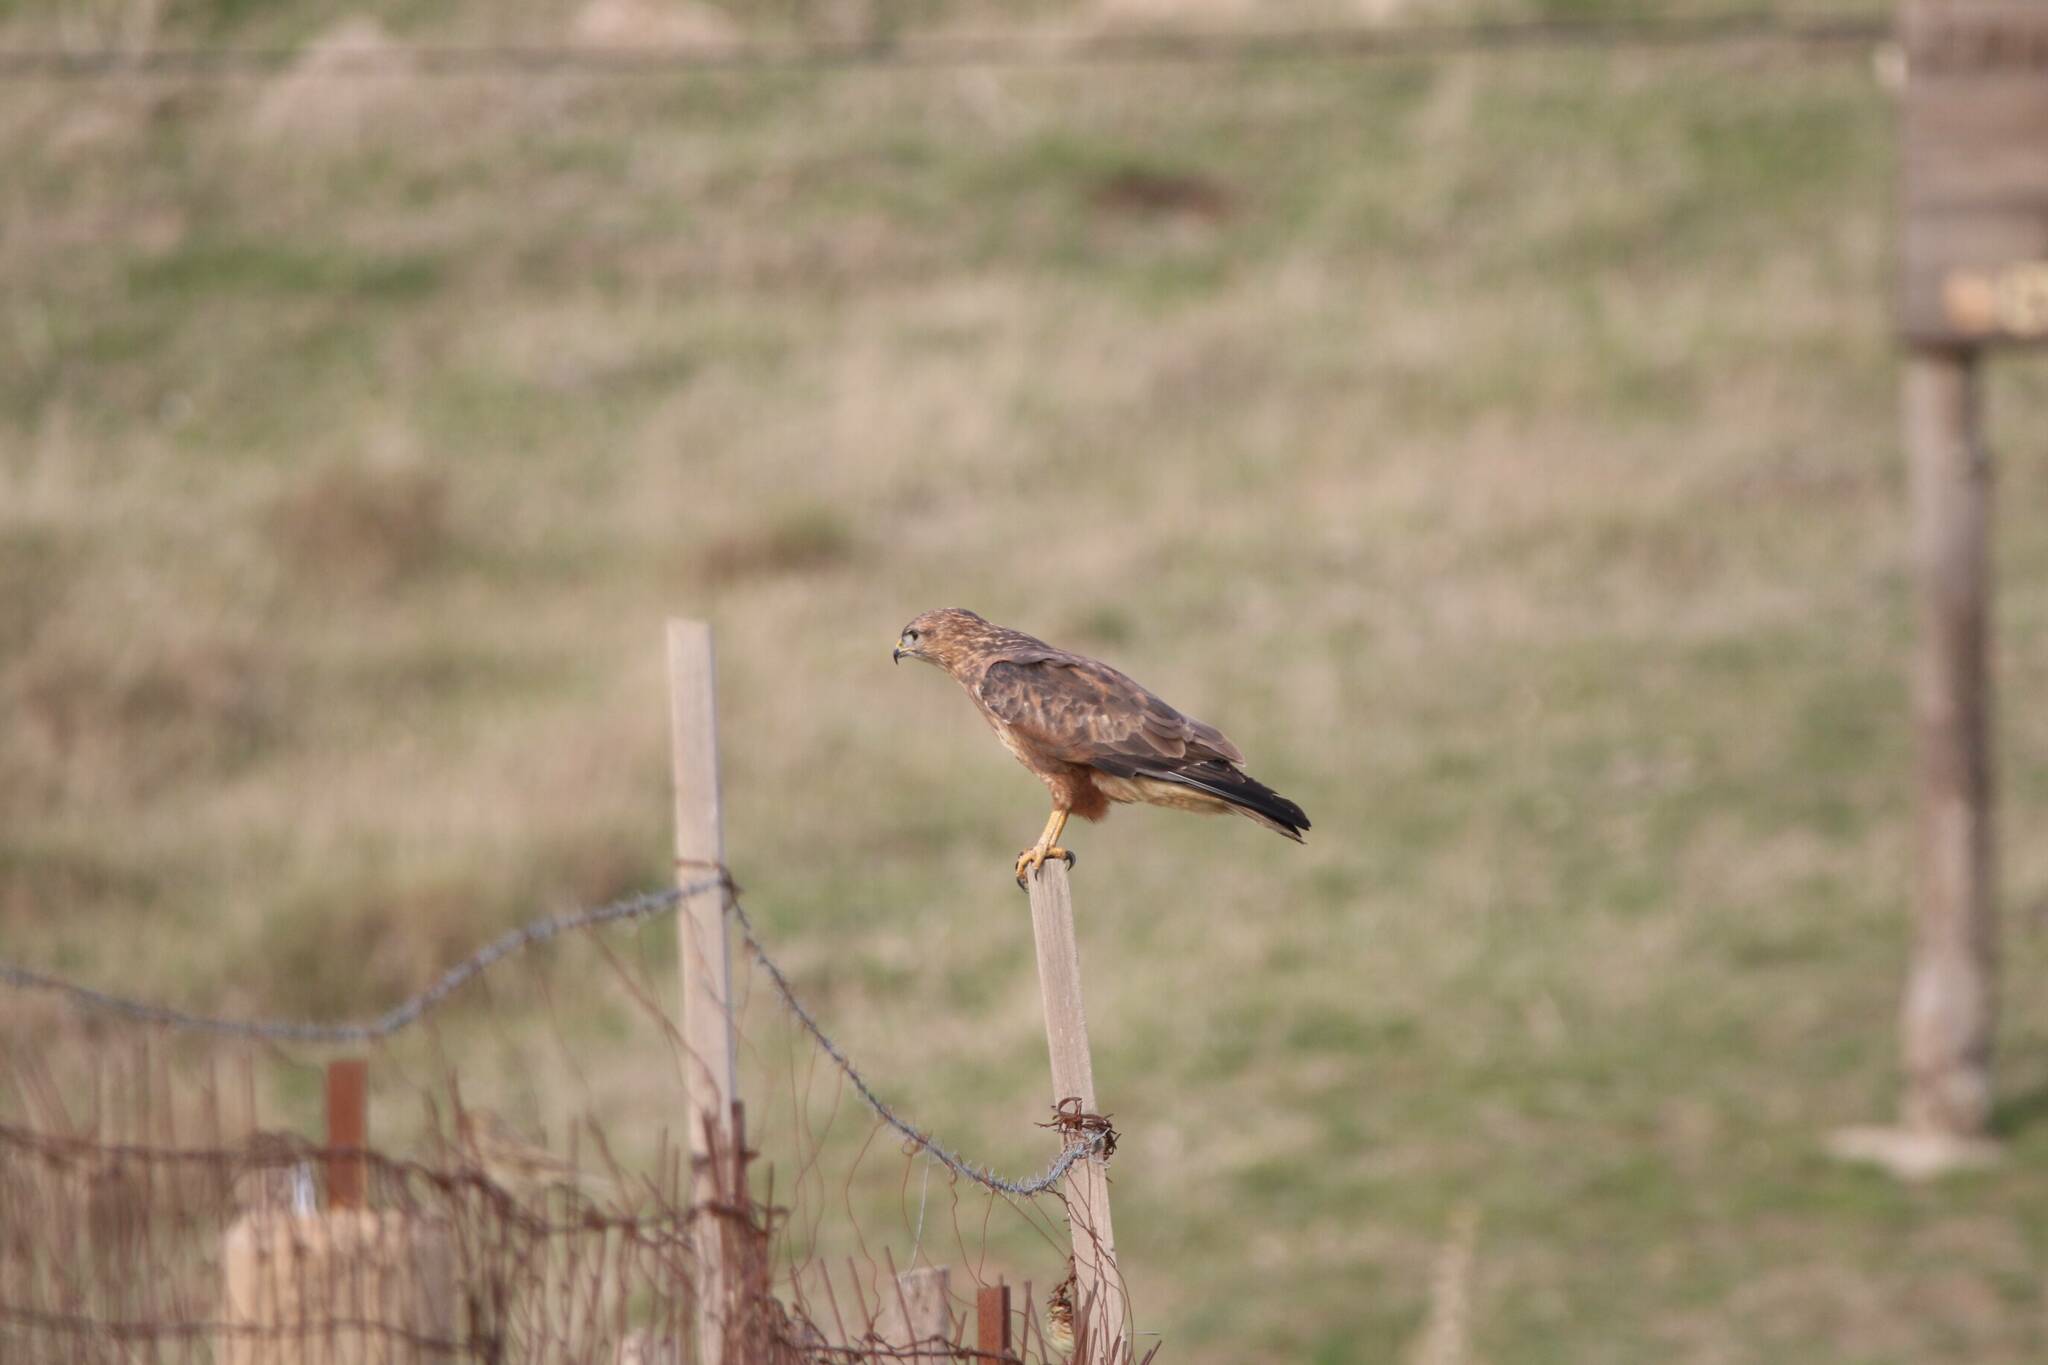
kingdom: Animalia
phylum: Chordata
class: Aves
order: Accipitriformes
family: Accipitridae
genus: Buteo
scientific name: Buteo rufinus
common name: Long-legged buzzard
